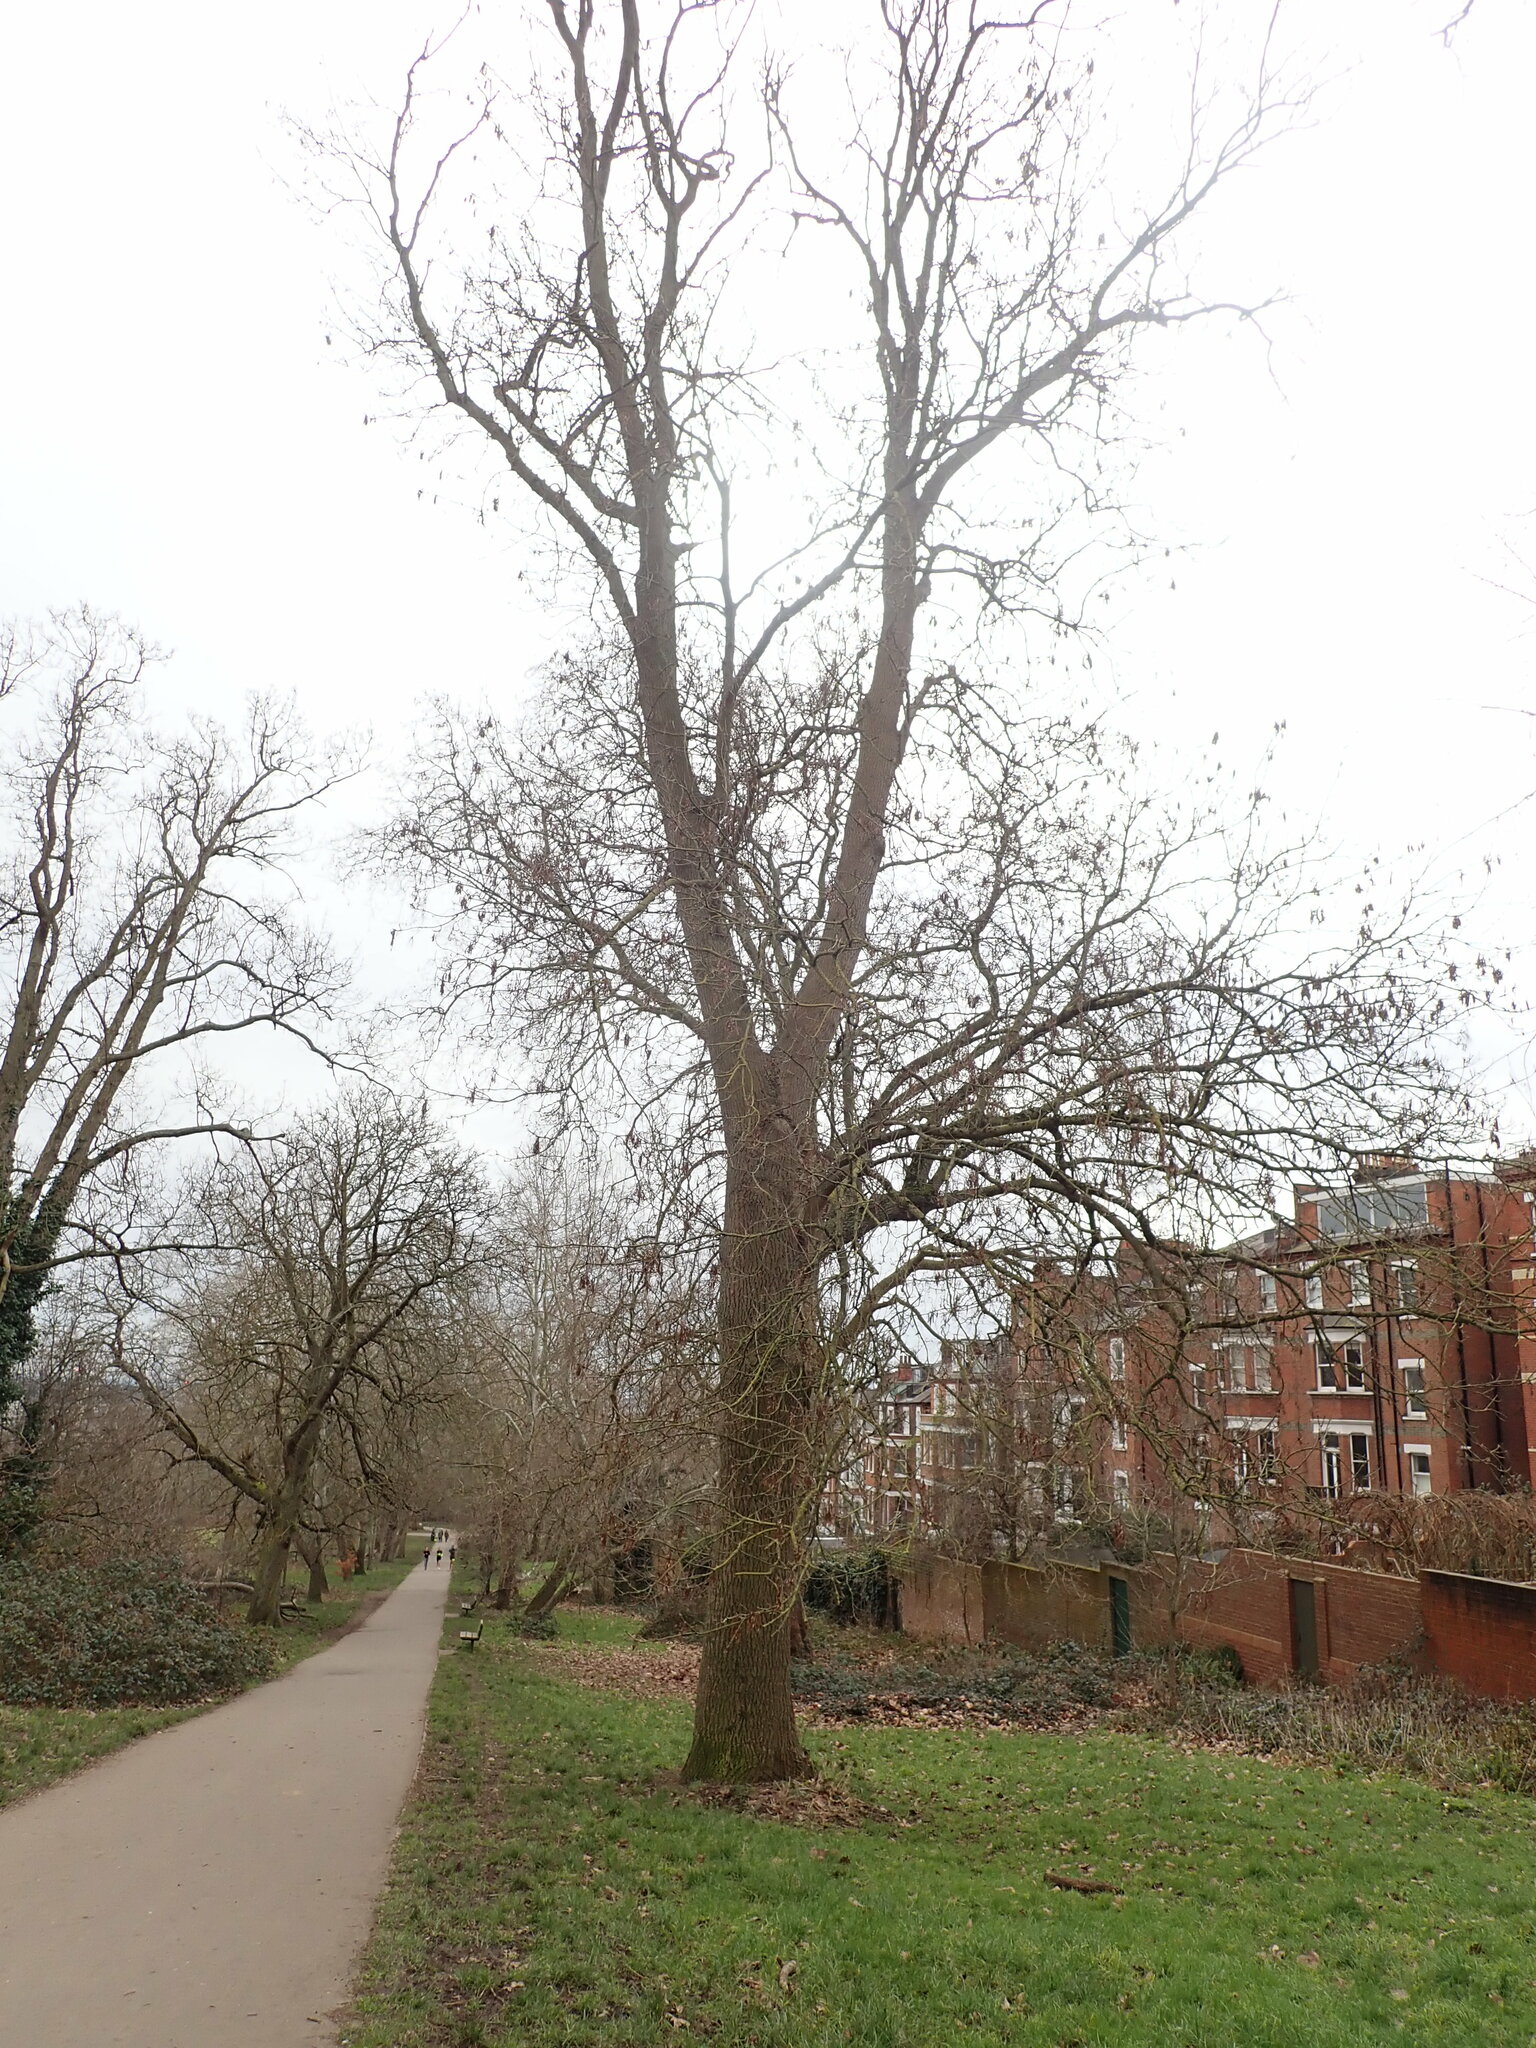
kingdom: Plantae
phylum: Tracheophyta
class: Magnoliopsida
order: Lamiales
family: Oleaceae
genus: Fraxinus
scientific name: Fraxinus excelsior
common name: European ash
